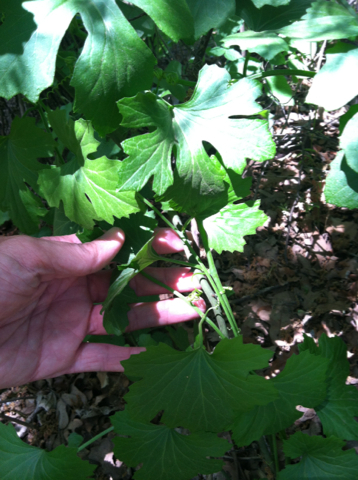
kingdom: Plantae
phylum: Tracheophyta
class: Magnoliopsida
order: Cucurbitales
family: Cucurbitaceae
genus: Ibervillea
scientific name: Ibervillea lindheimeri
